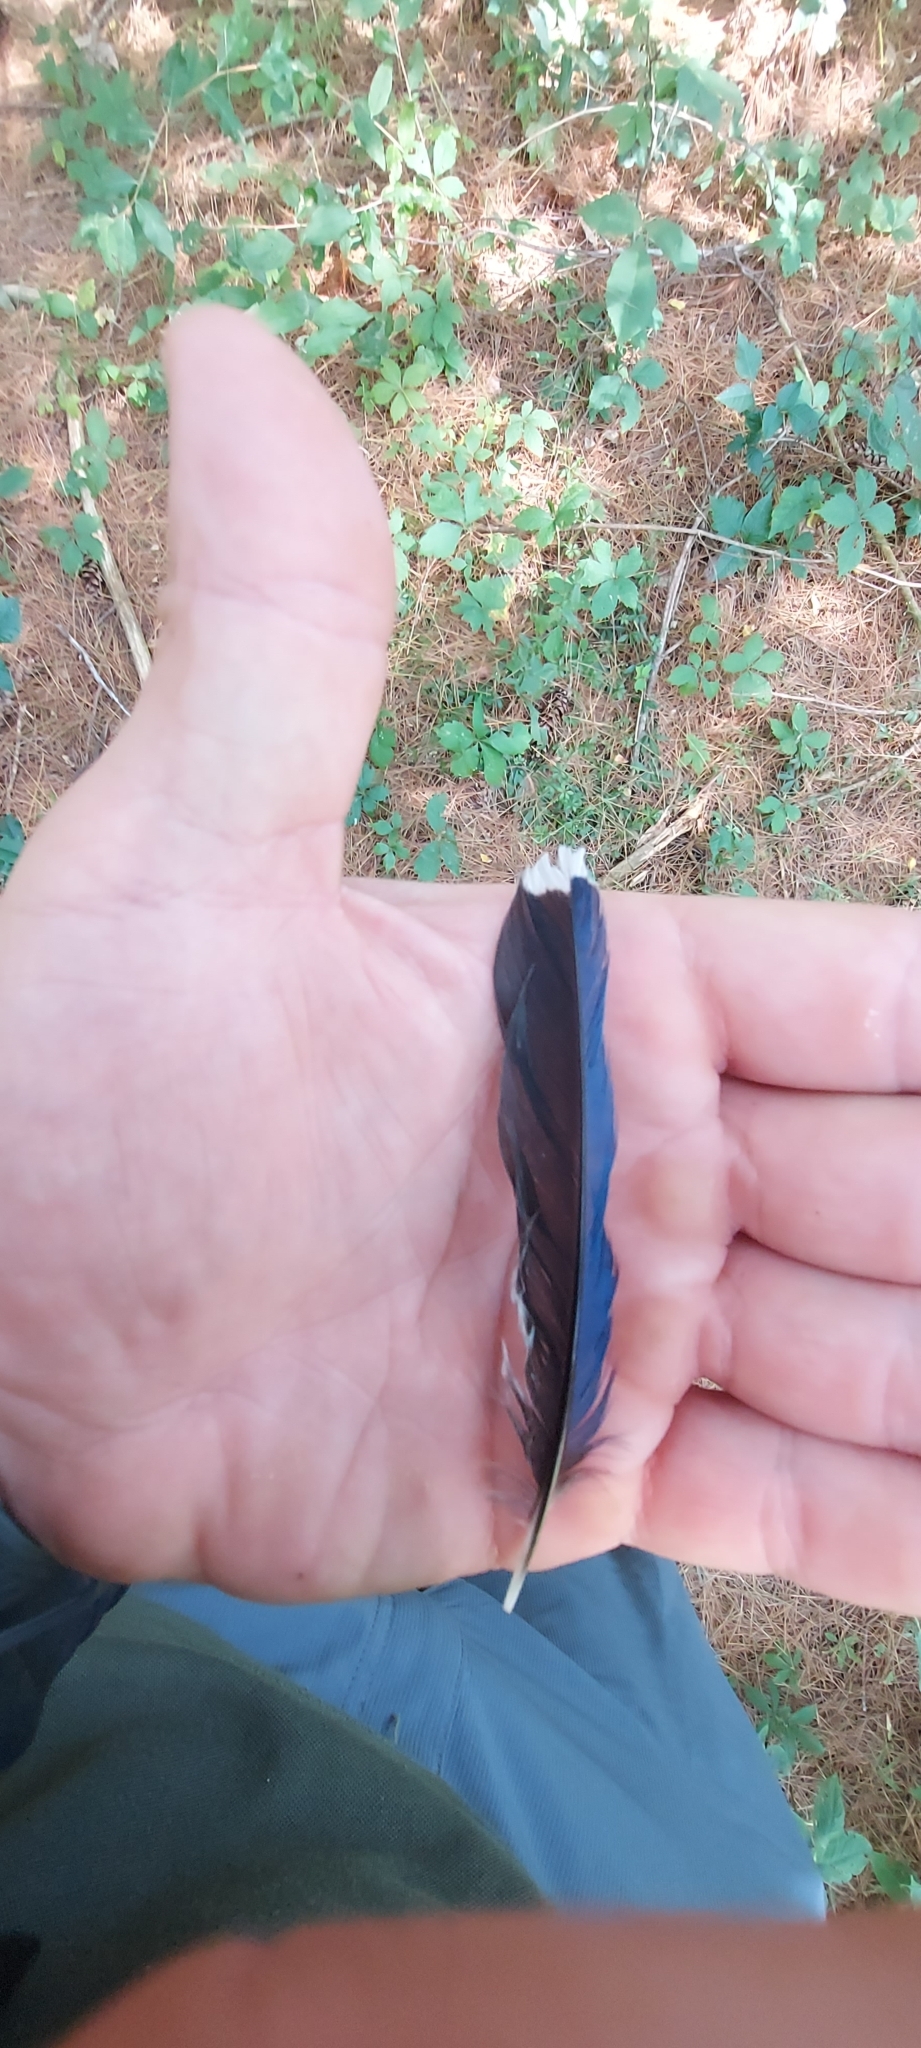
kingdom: Animalia
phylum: Chordata
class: Aves
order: Passeriformes
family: Corvidae
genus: Cyanocitta
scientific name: Cyanocitta cristata
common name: Blue jay
